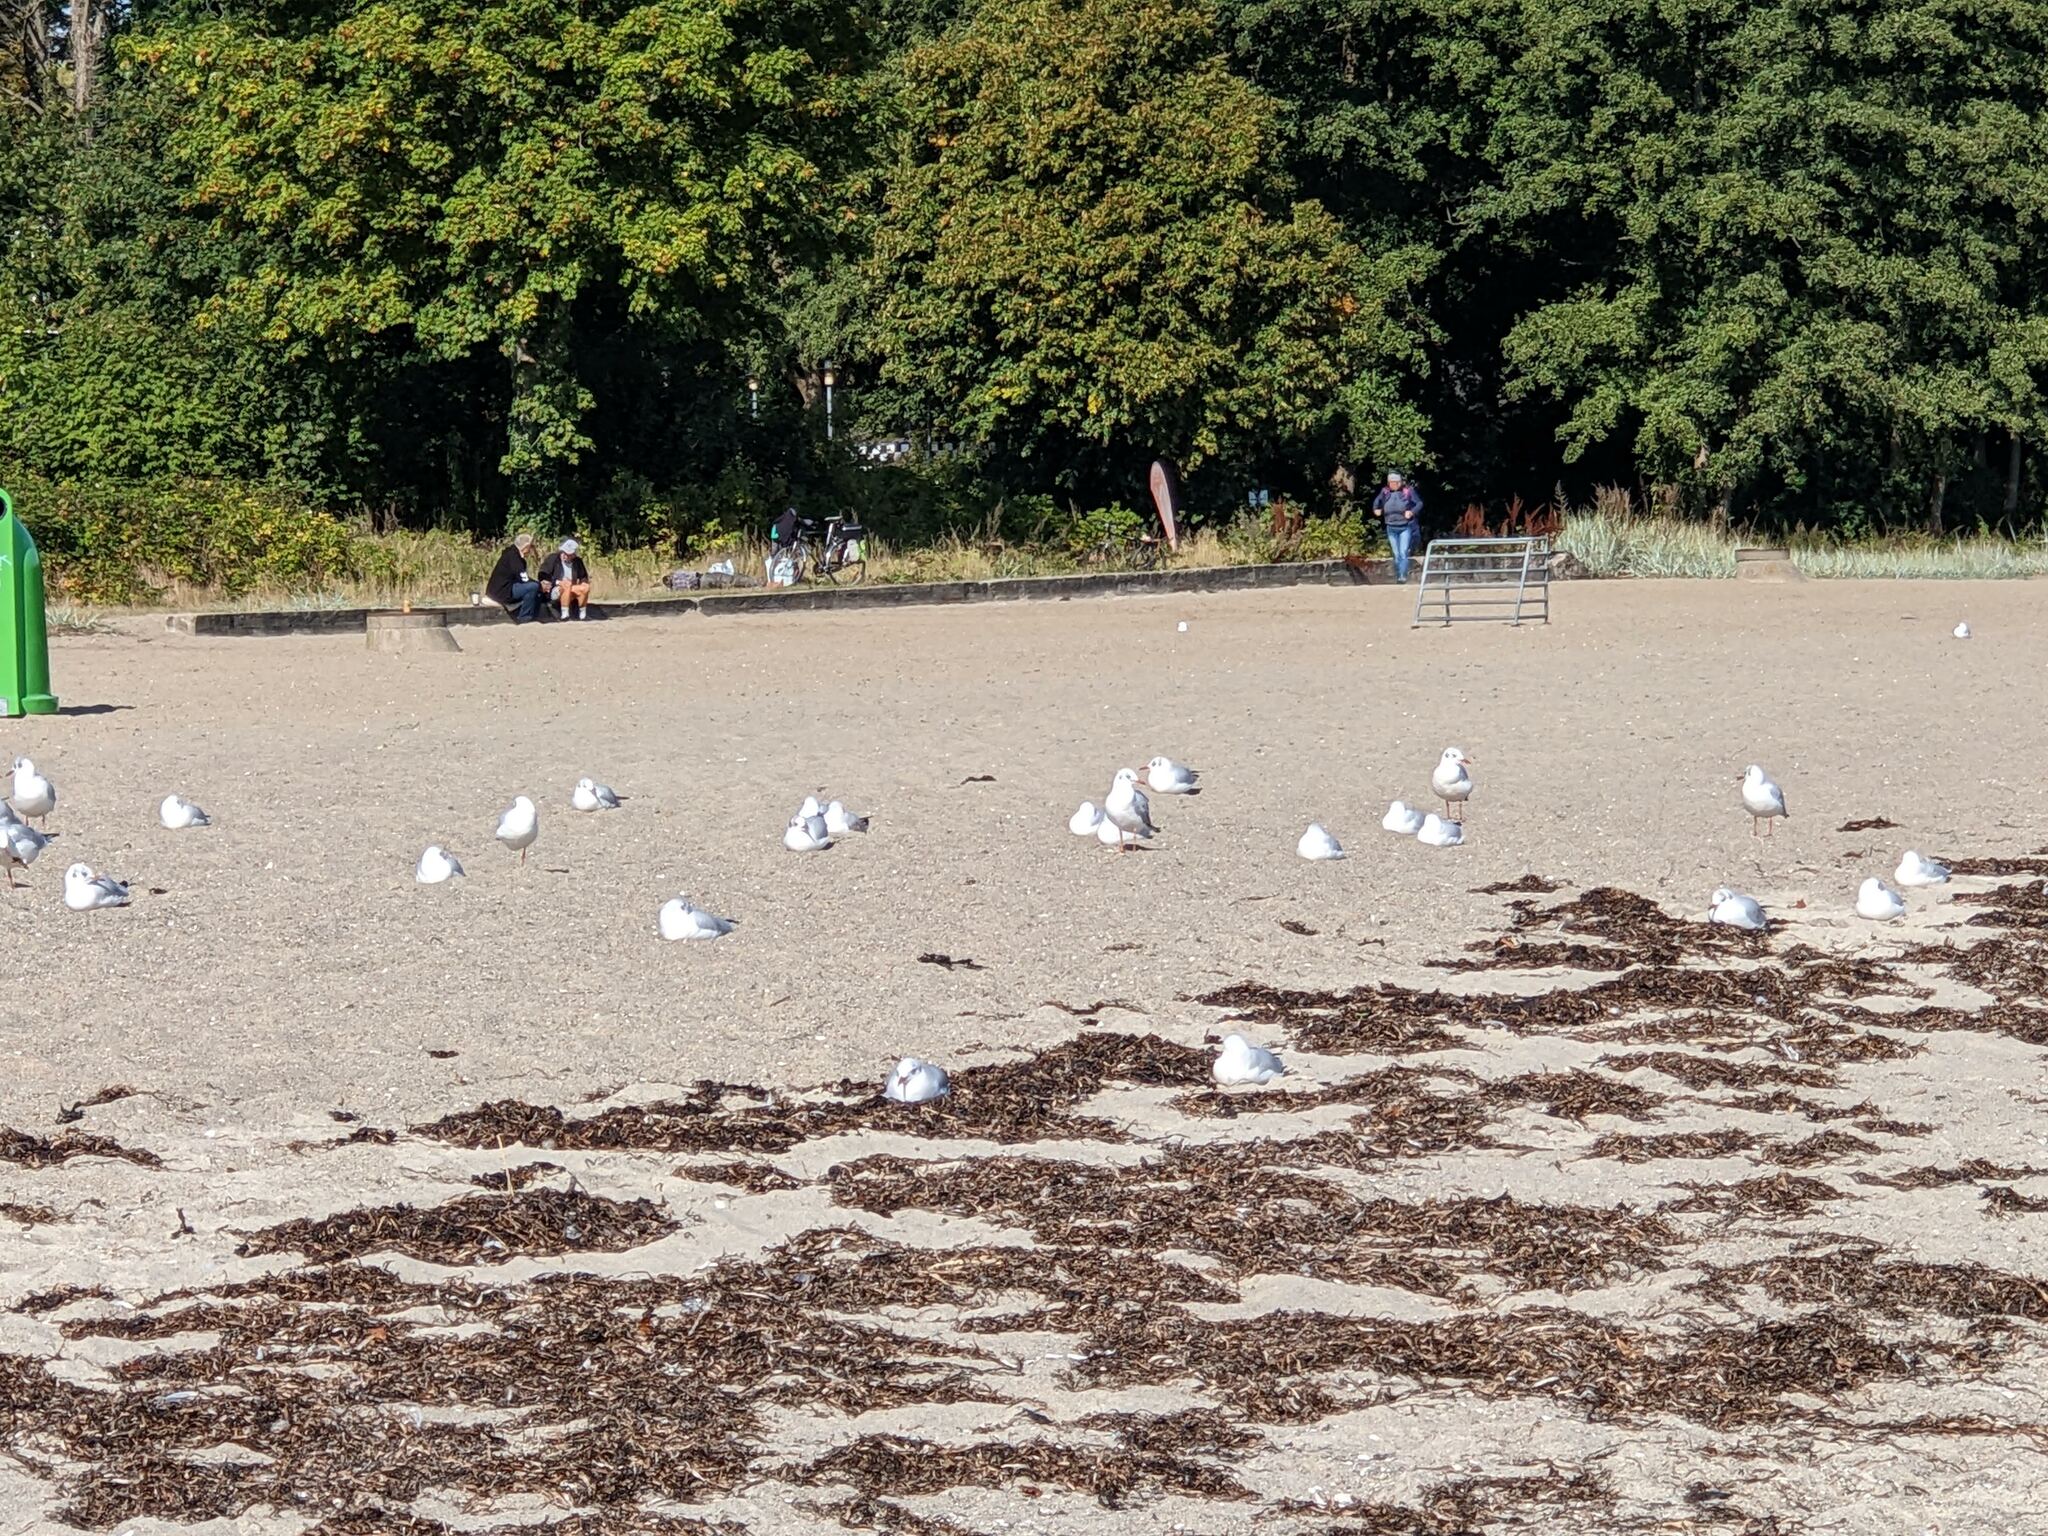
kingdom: Animalia
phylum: Chordata
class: Aves
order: Charadriiformes
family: Laridae
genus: Chroicocephalus
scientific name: Chroicocephalus ridibundus
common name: Black-headed gull
